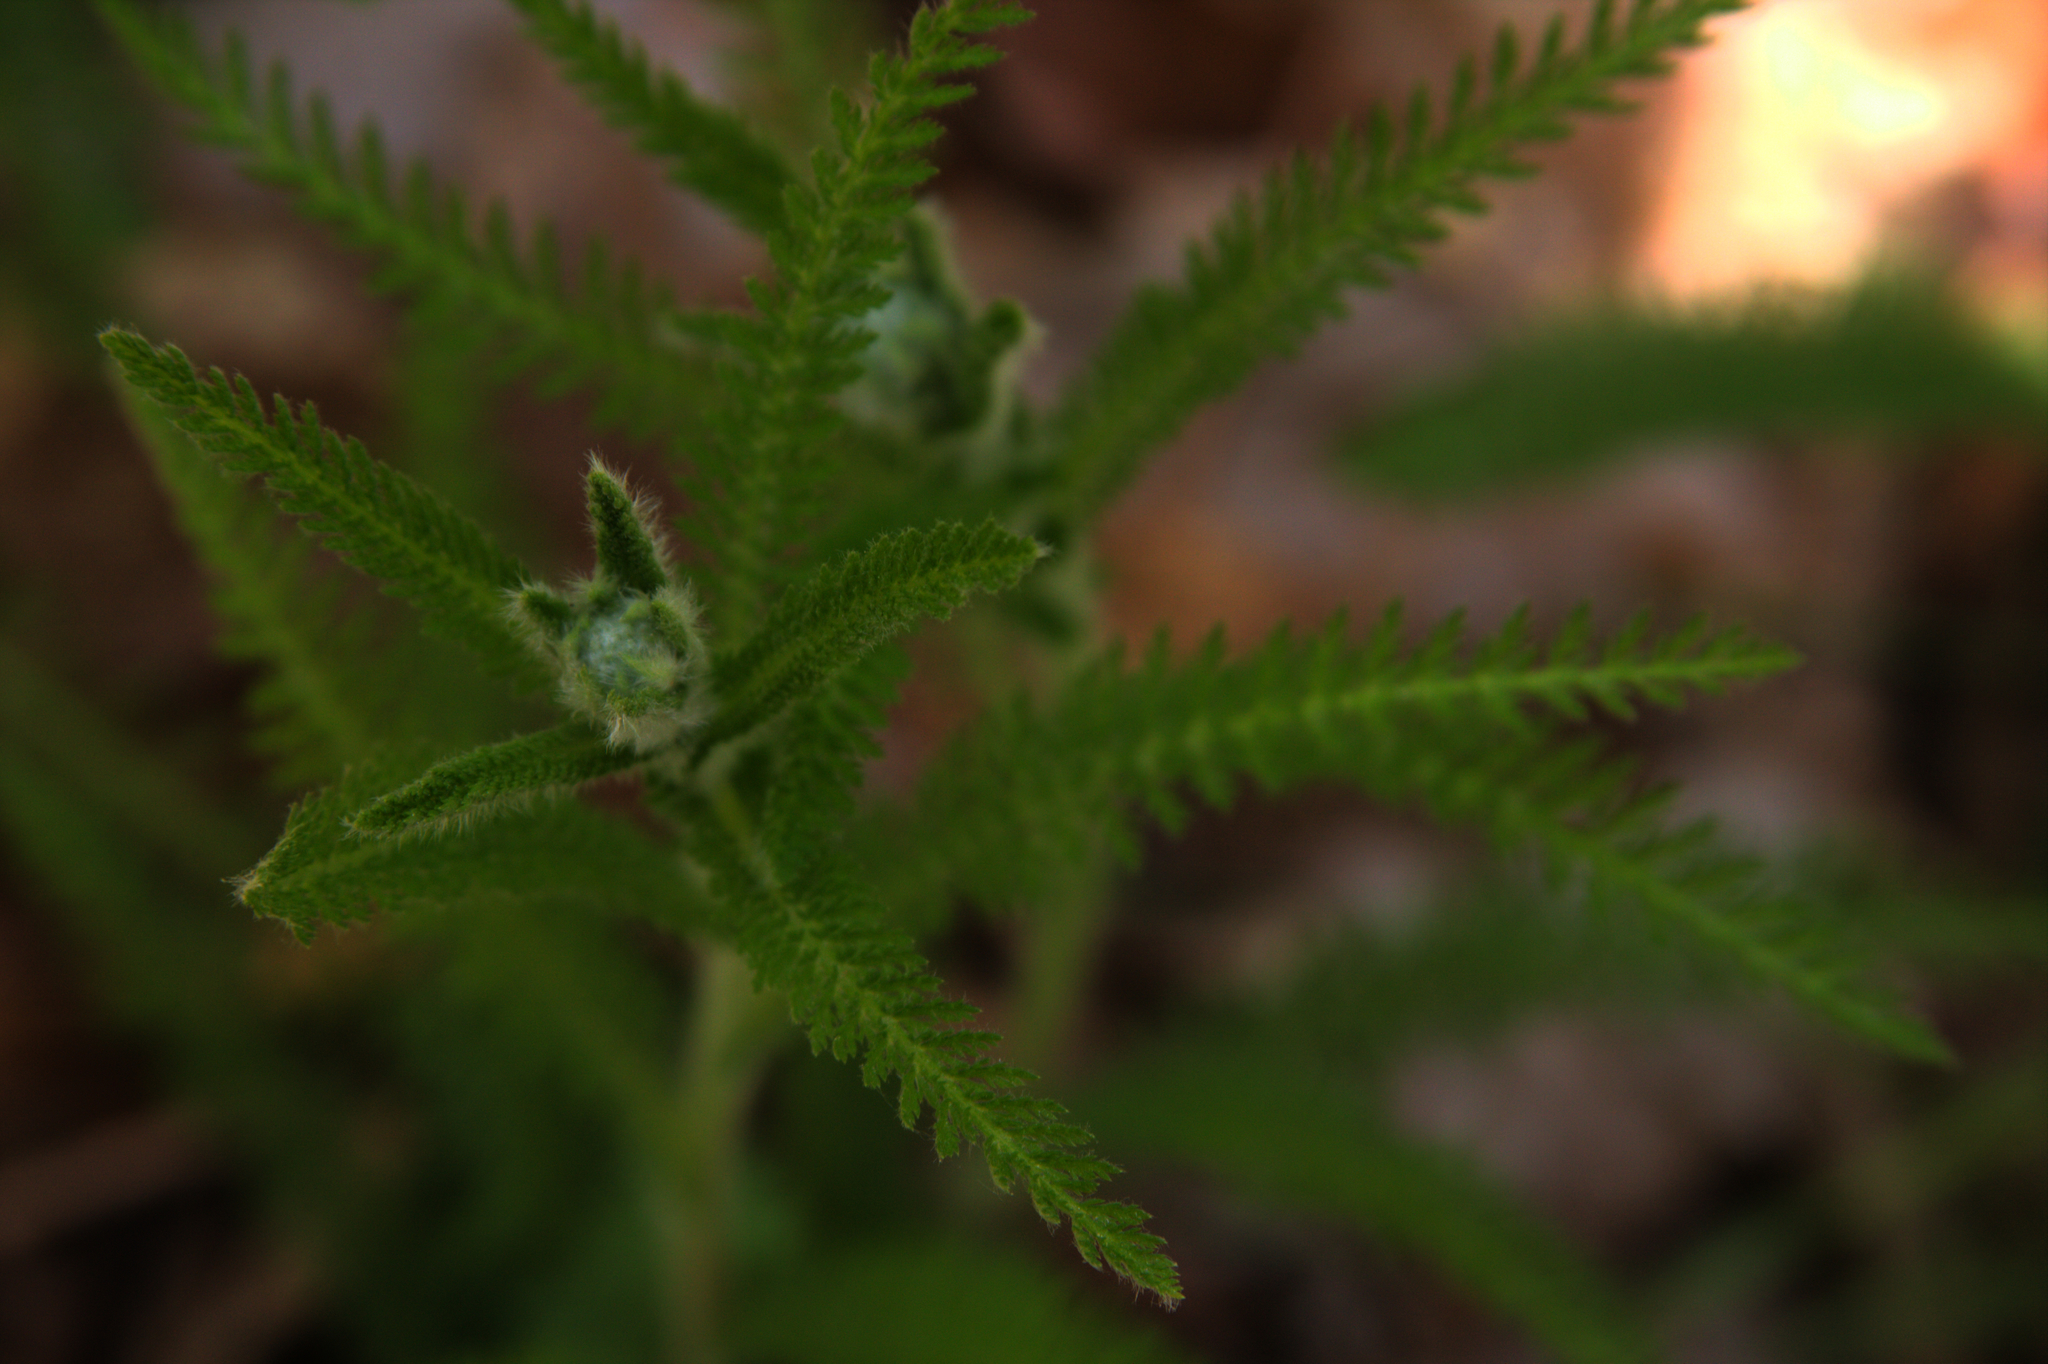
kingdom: Plantae
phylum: Tracheophyta
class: Magnoliopsida
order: Asterales
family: Asteraceae
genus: Achillea
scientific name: Achillea millefolium
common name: Yarrow
